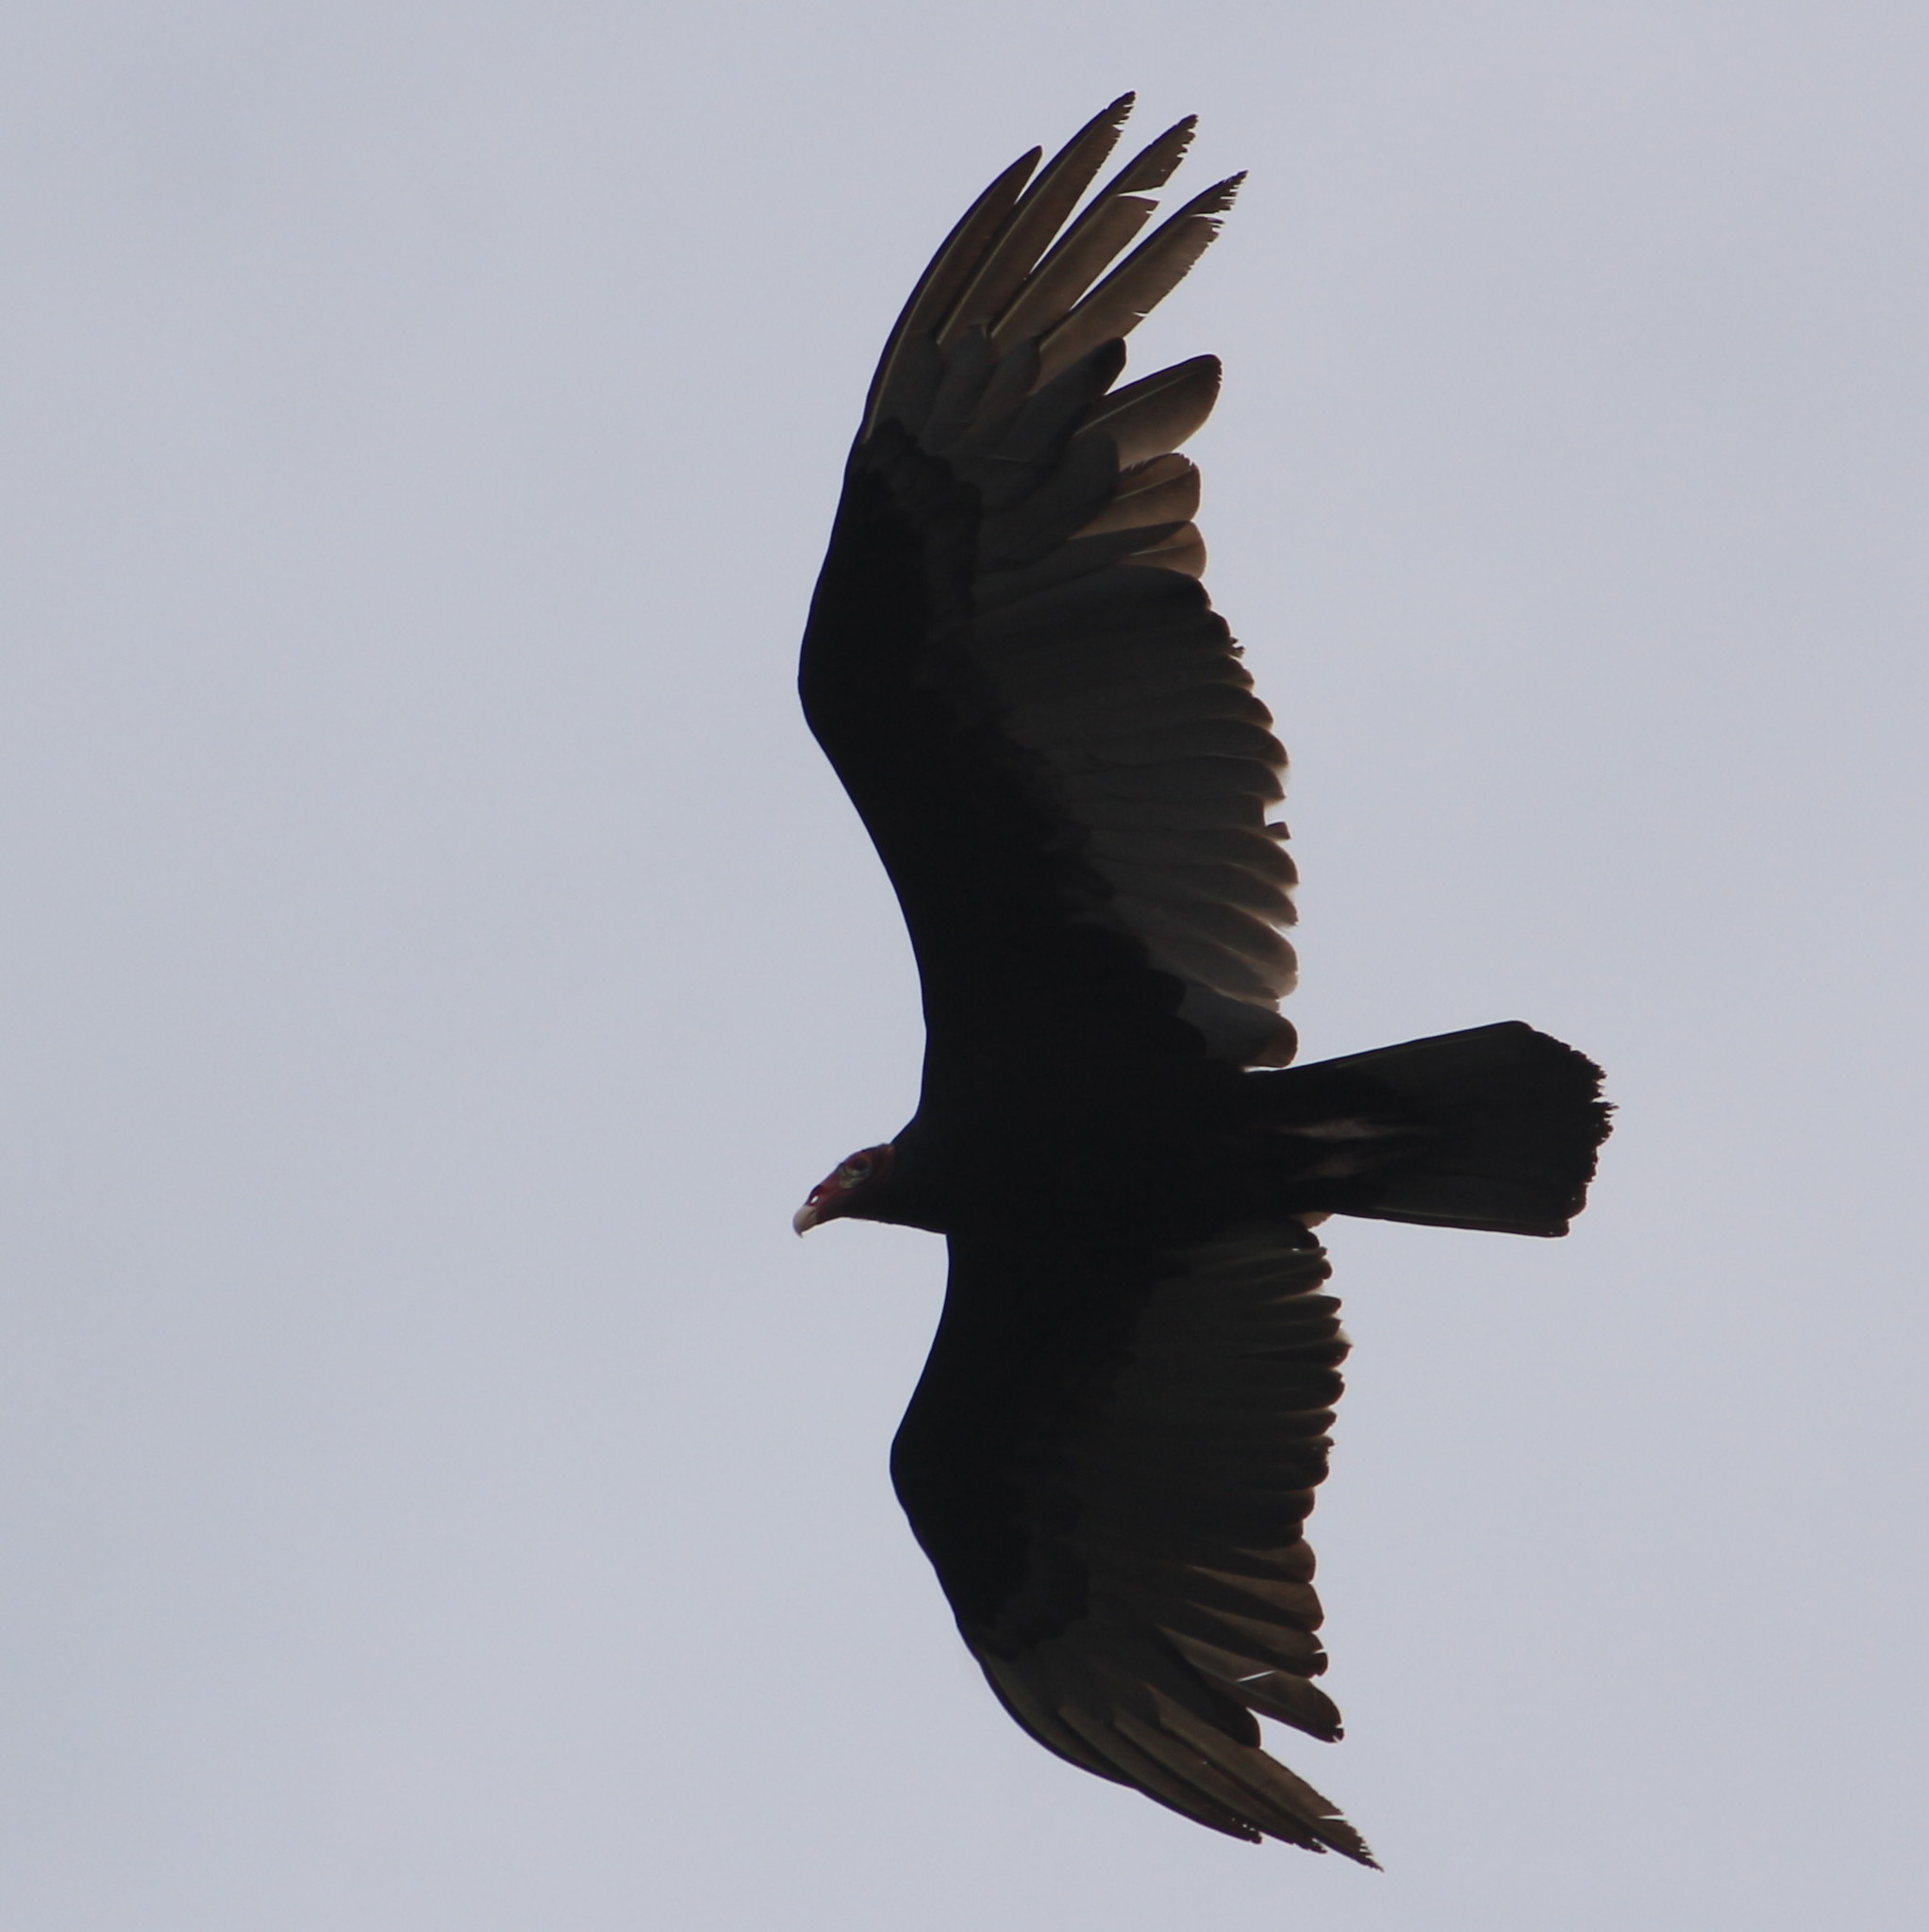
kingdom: Animalia
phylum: Chordata
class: Aves
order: Accipitriformes
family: Cathartidae
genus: Cathartes
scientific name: Cathartes aura
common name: Turkey vulture
